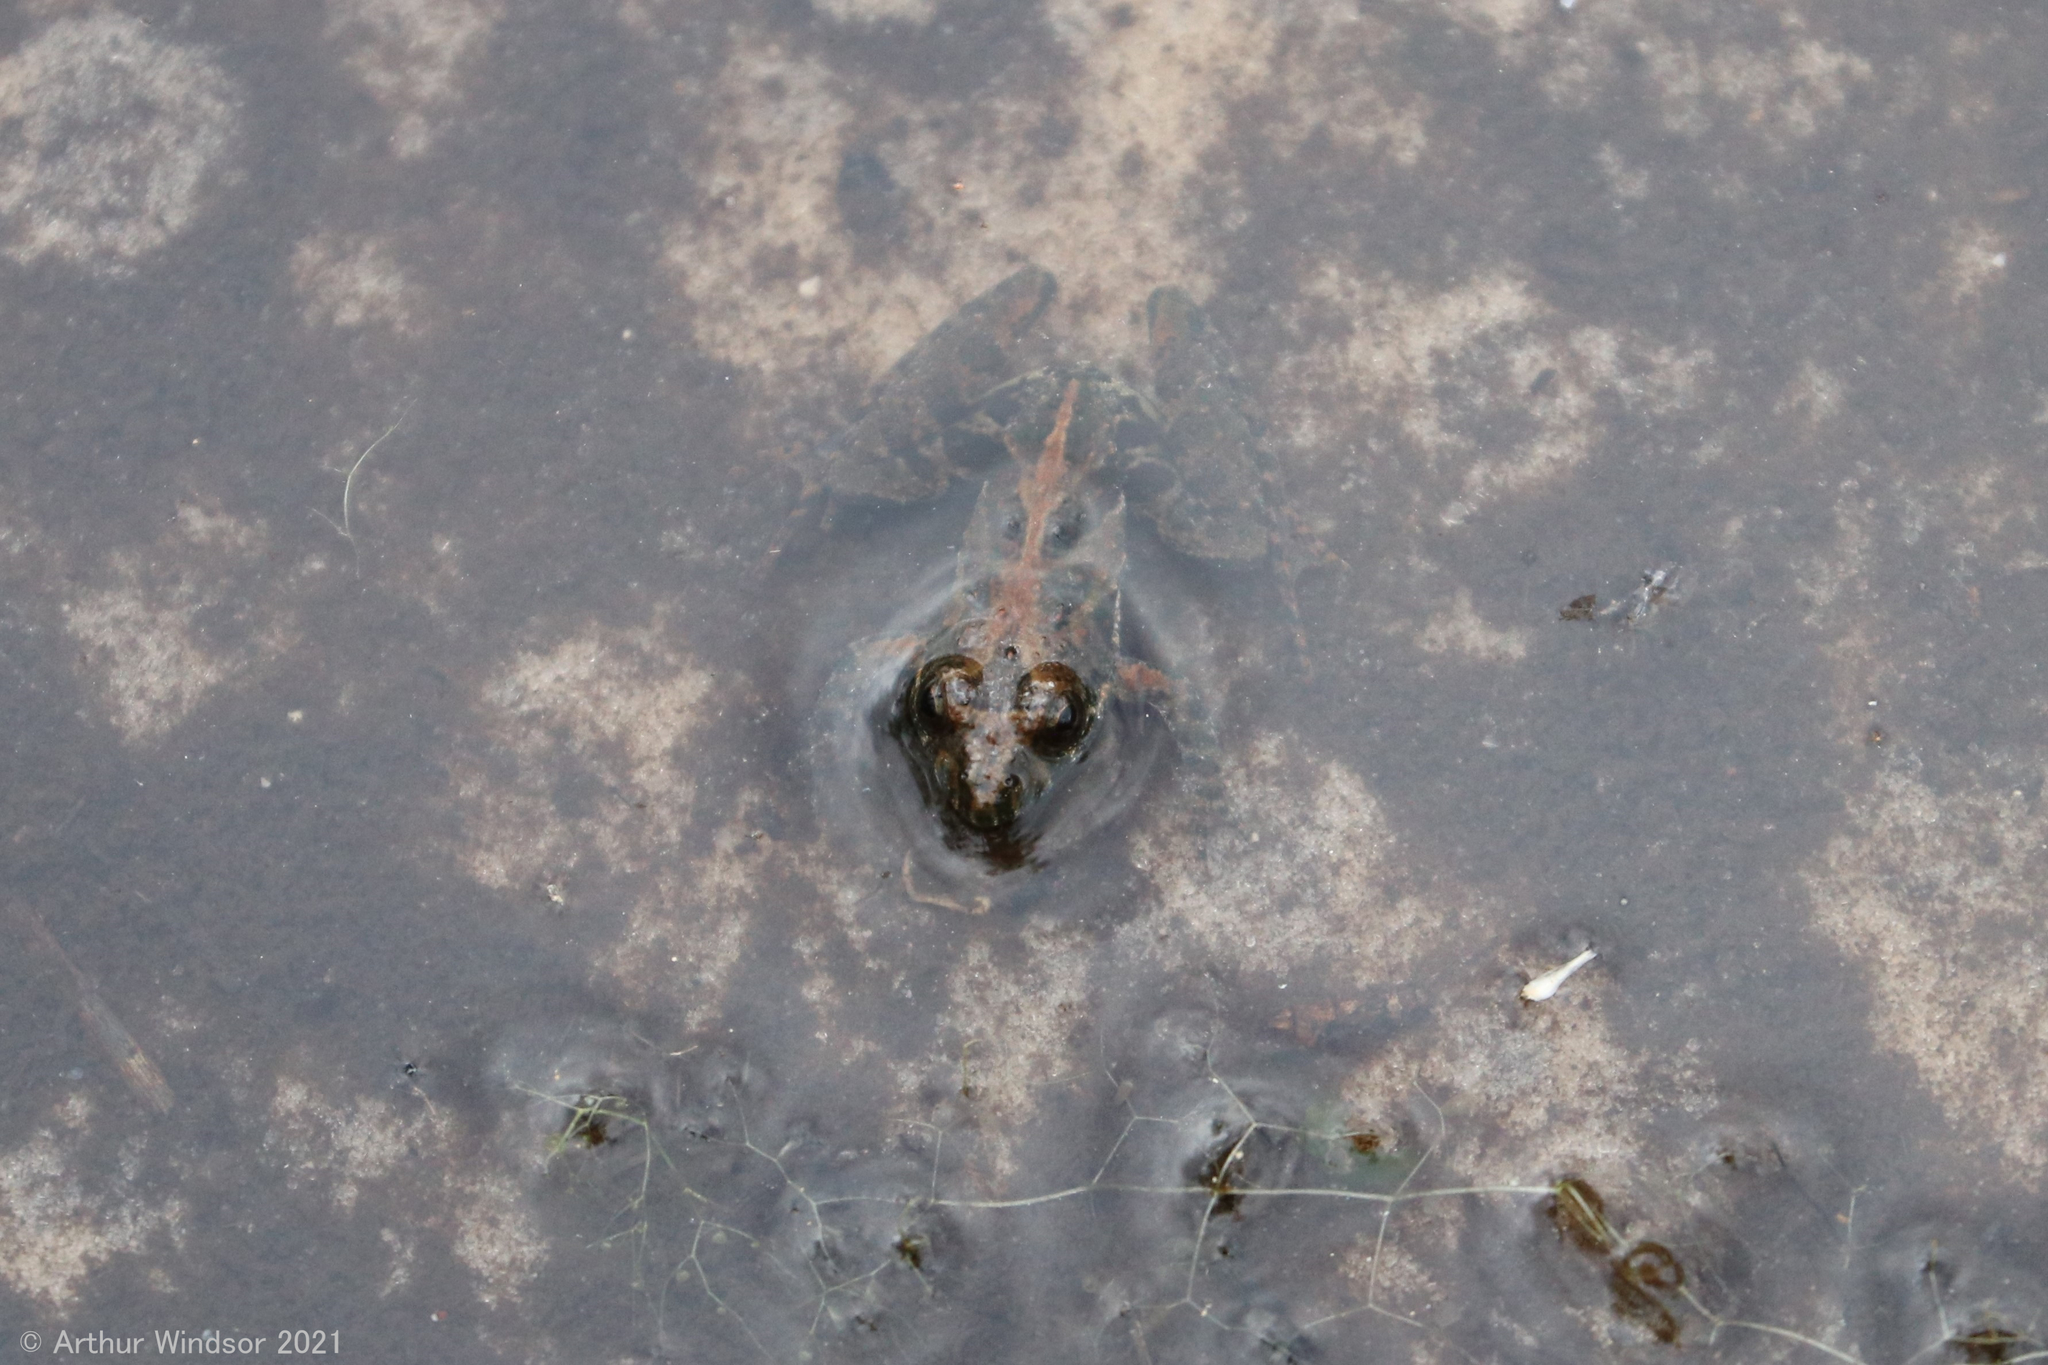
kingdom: Animalia
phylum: Chordata
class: Amphibia
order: Anura
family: Hylidae
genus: Acris
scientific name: Acris gryllus
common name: Southern cricket frog
